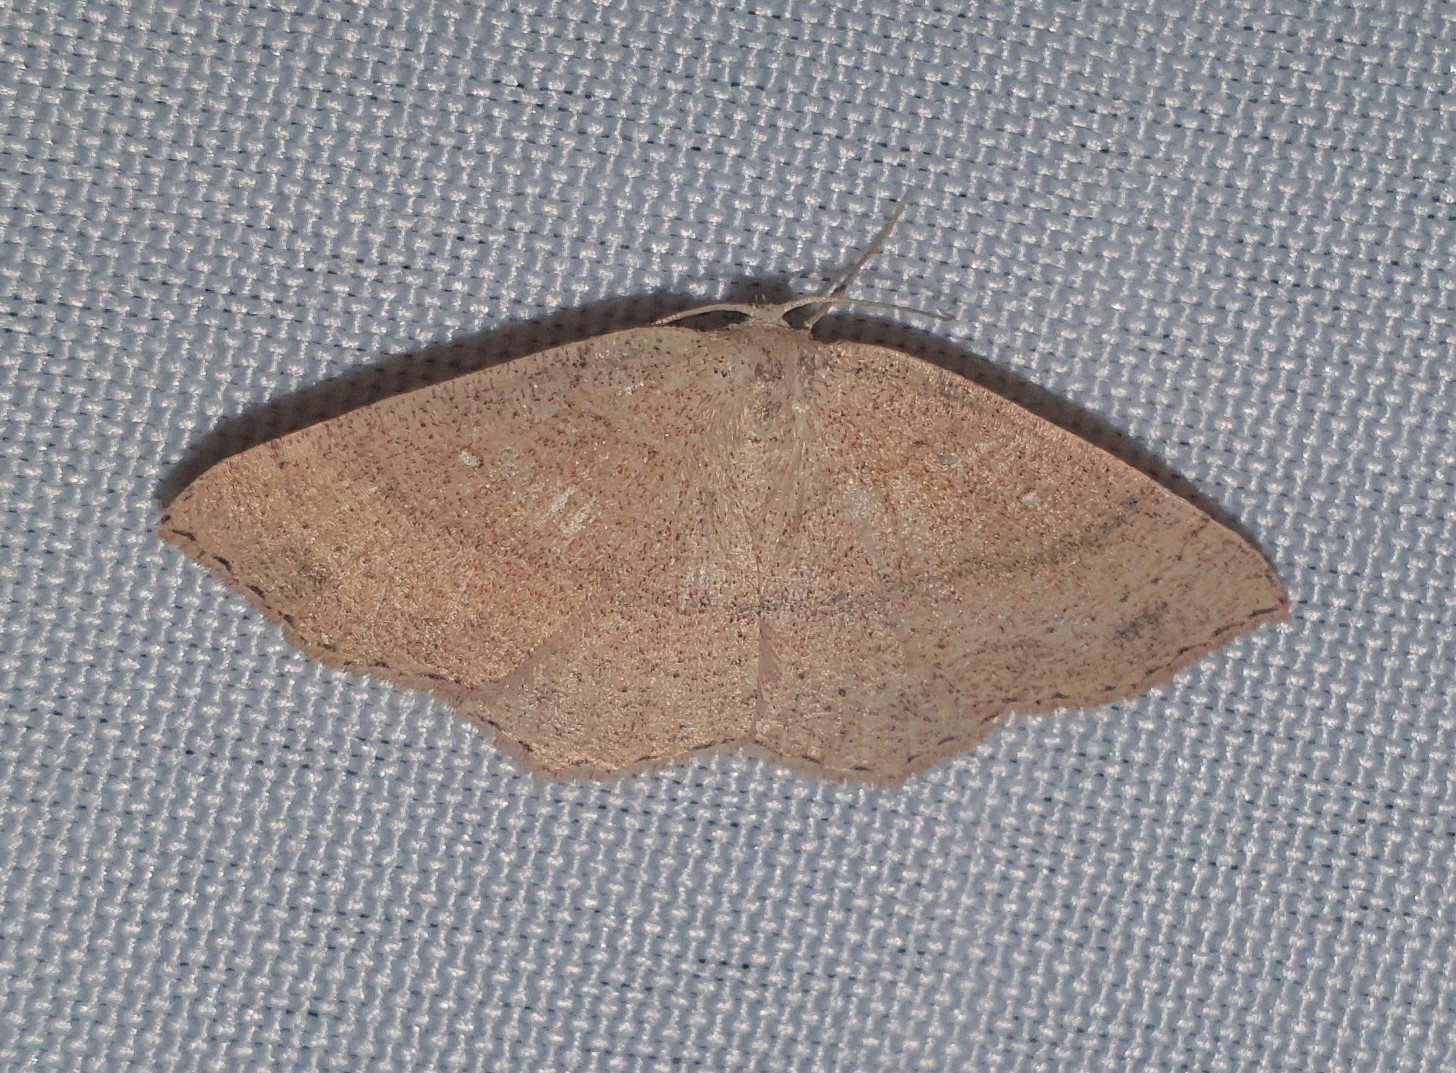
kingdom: Animalia
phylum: Arthropoda
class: Insecta
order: Lepidoptera
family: Geometridae
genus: Cyclophora
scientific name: Cyclophora linearia
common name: Clay triple-lines
